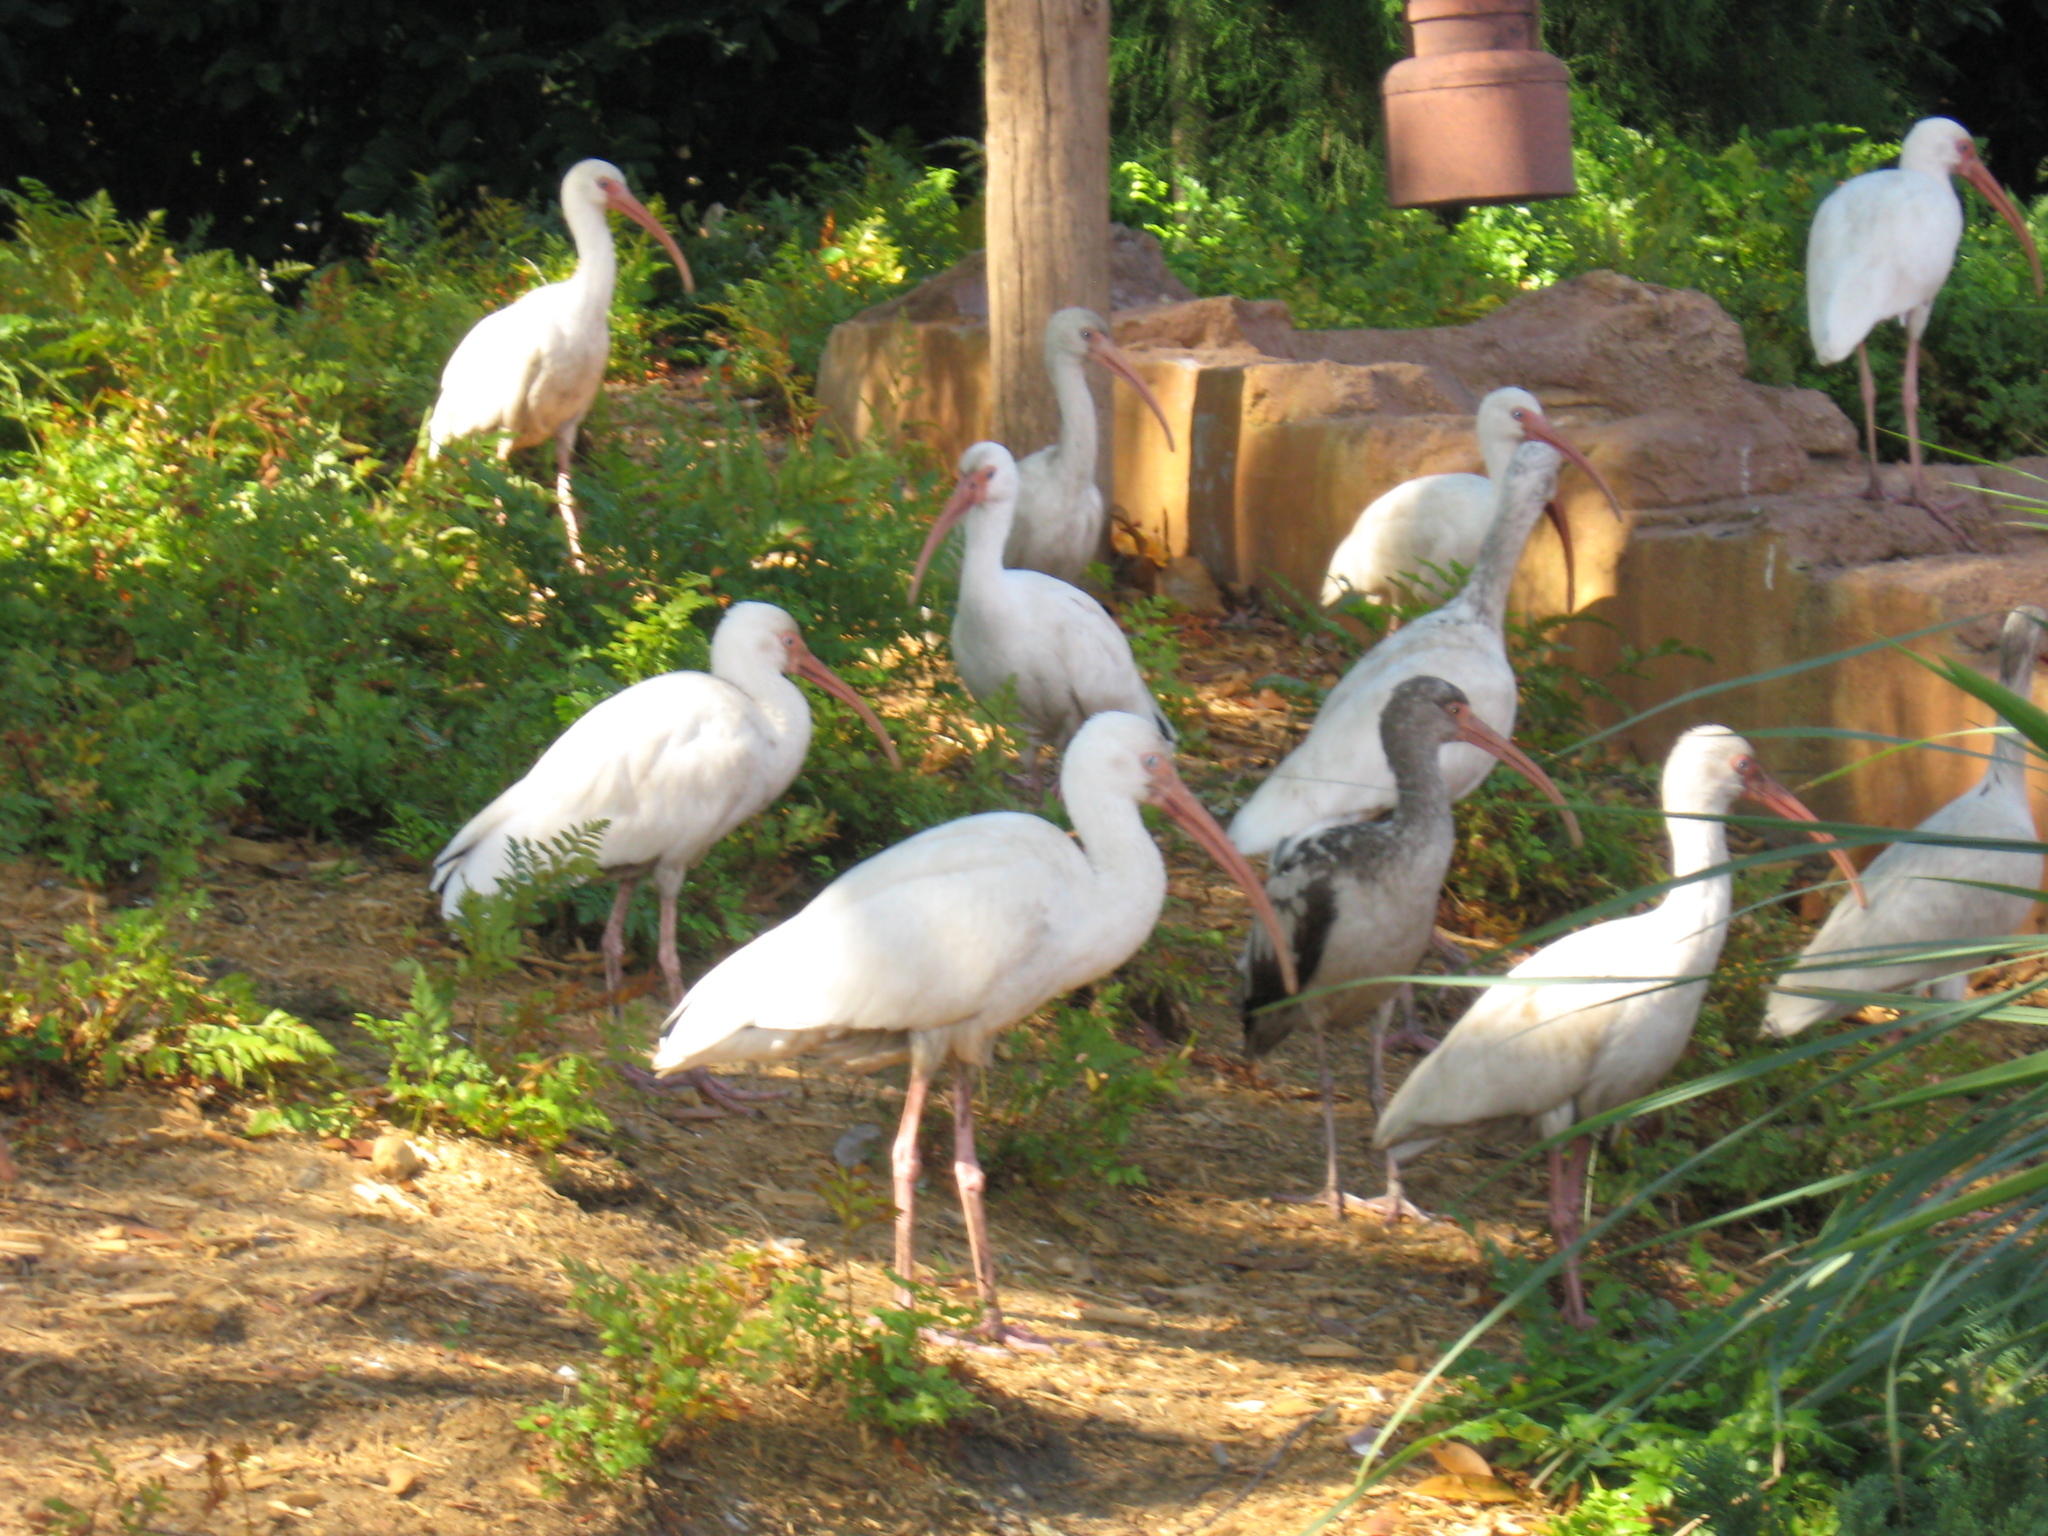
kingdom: Animalia
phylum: Chordata
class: Aves
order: Pelecaniformes
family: Threskiornithidae
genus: Eudocimus
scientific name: Eudocimus albus
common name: White ibis
